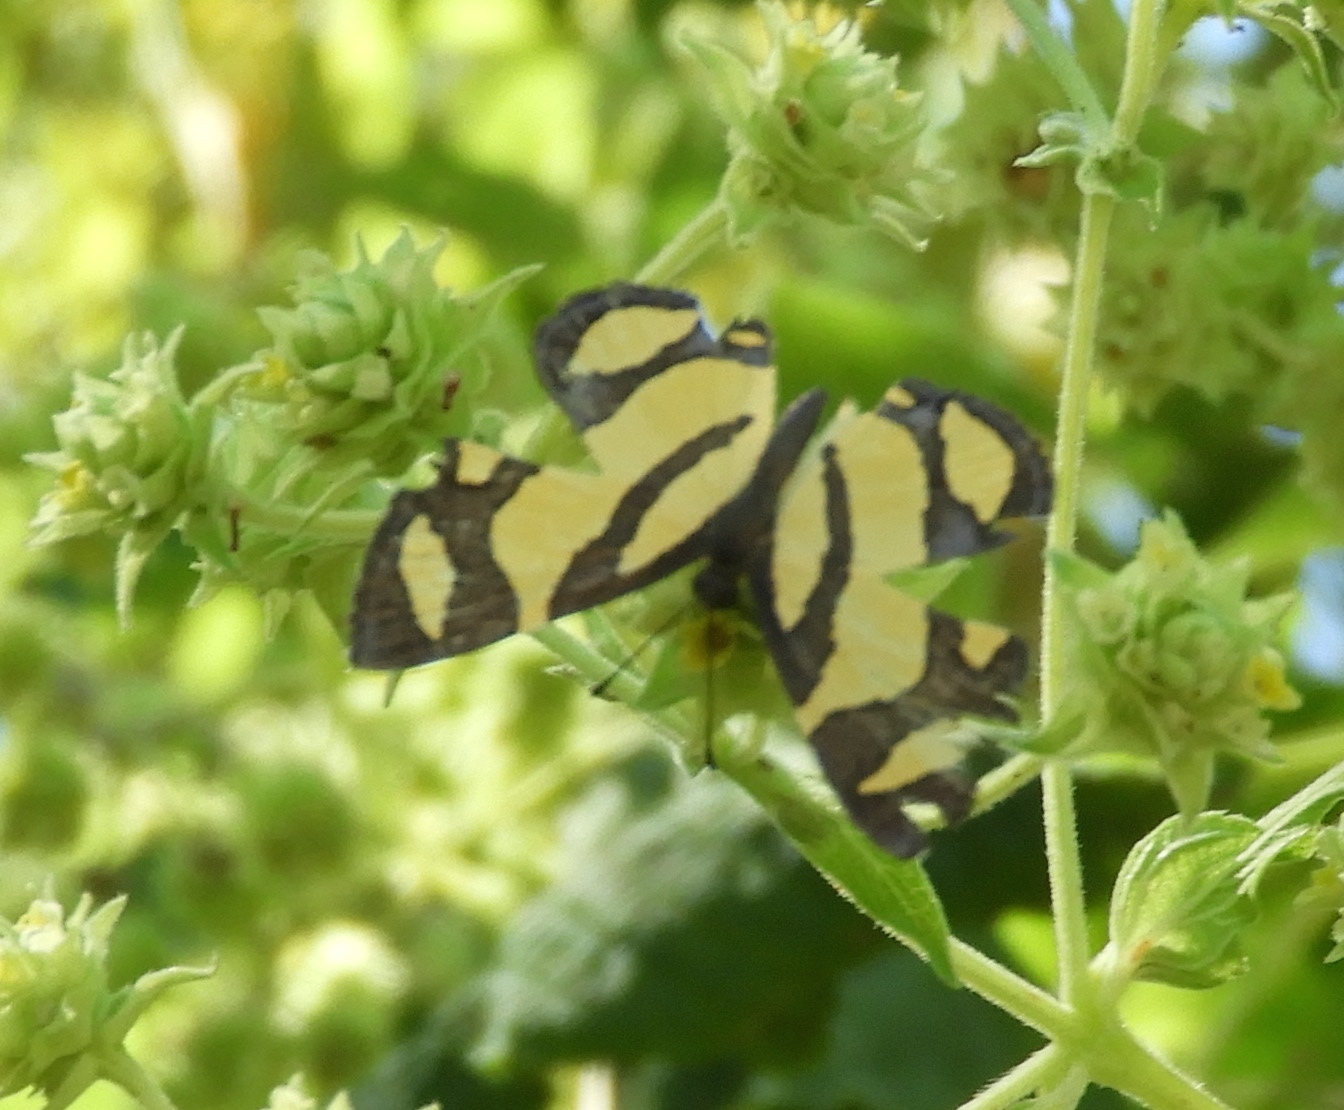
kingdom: Animalia
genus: Baeotis
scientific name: Baeotis zonata
